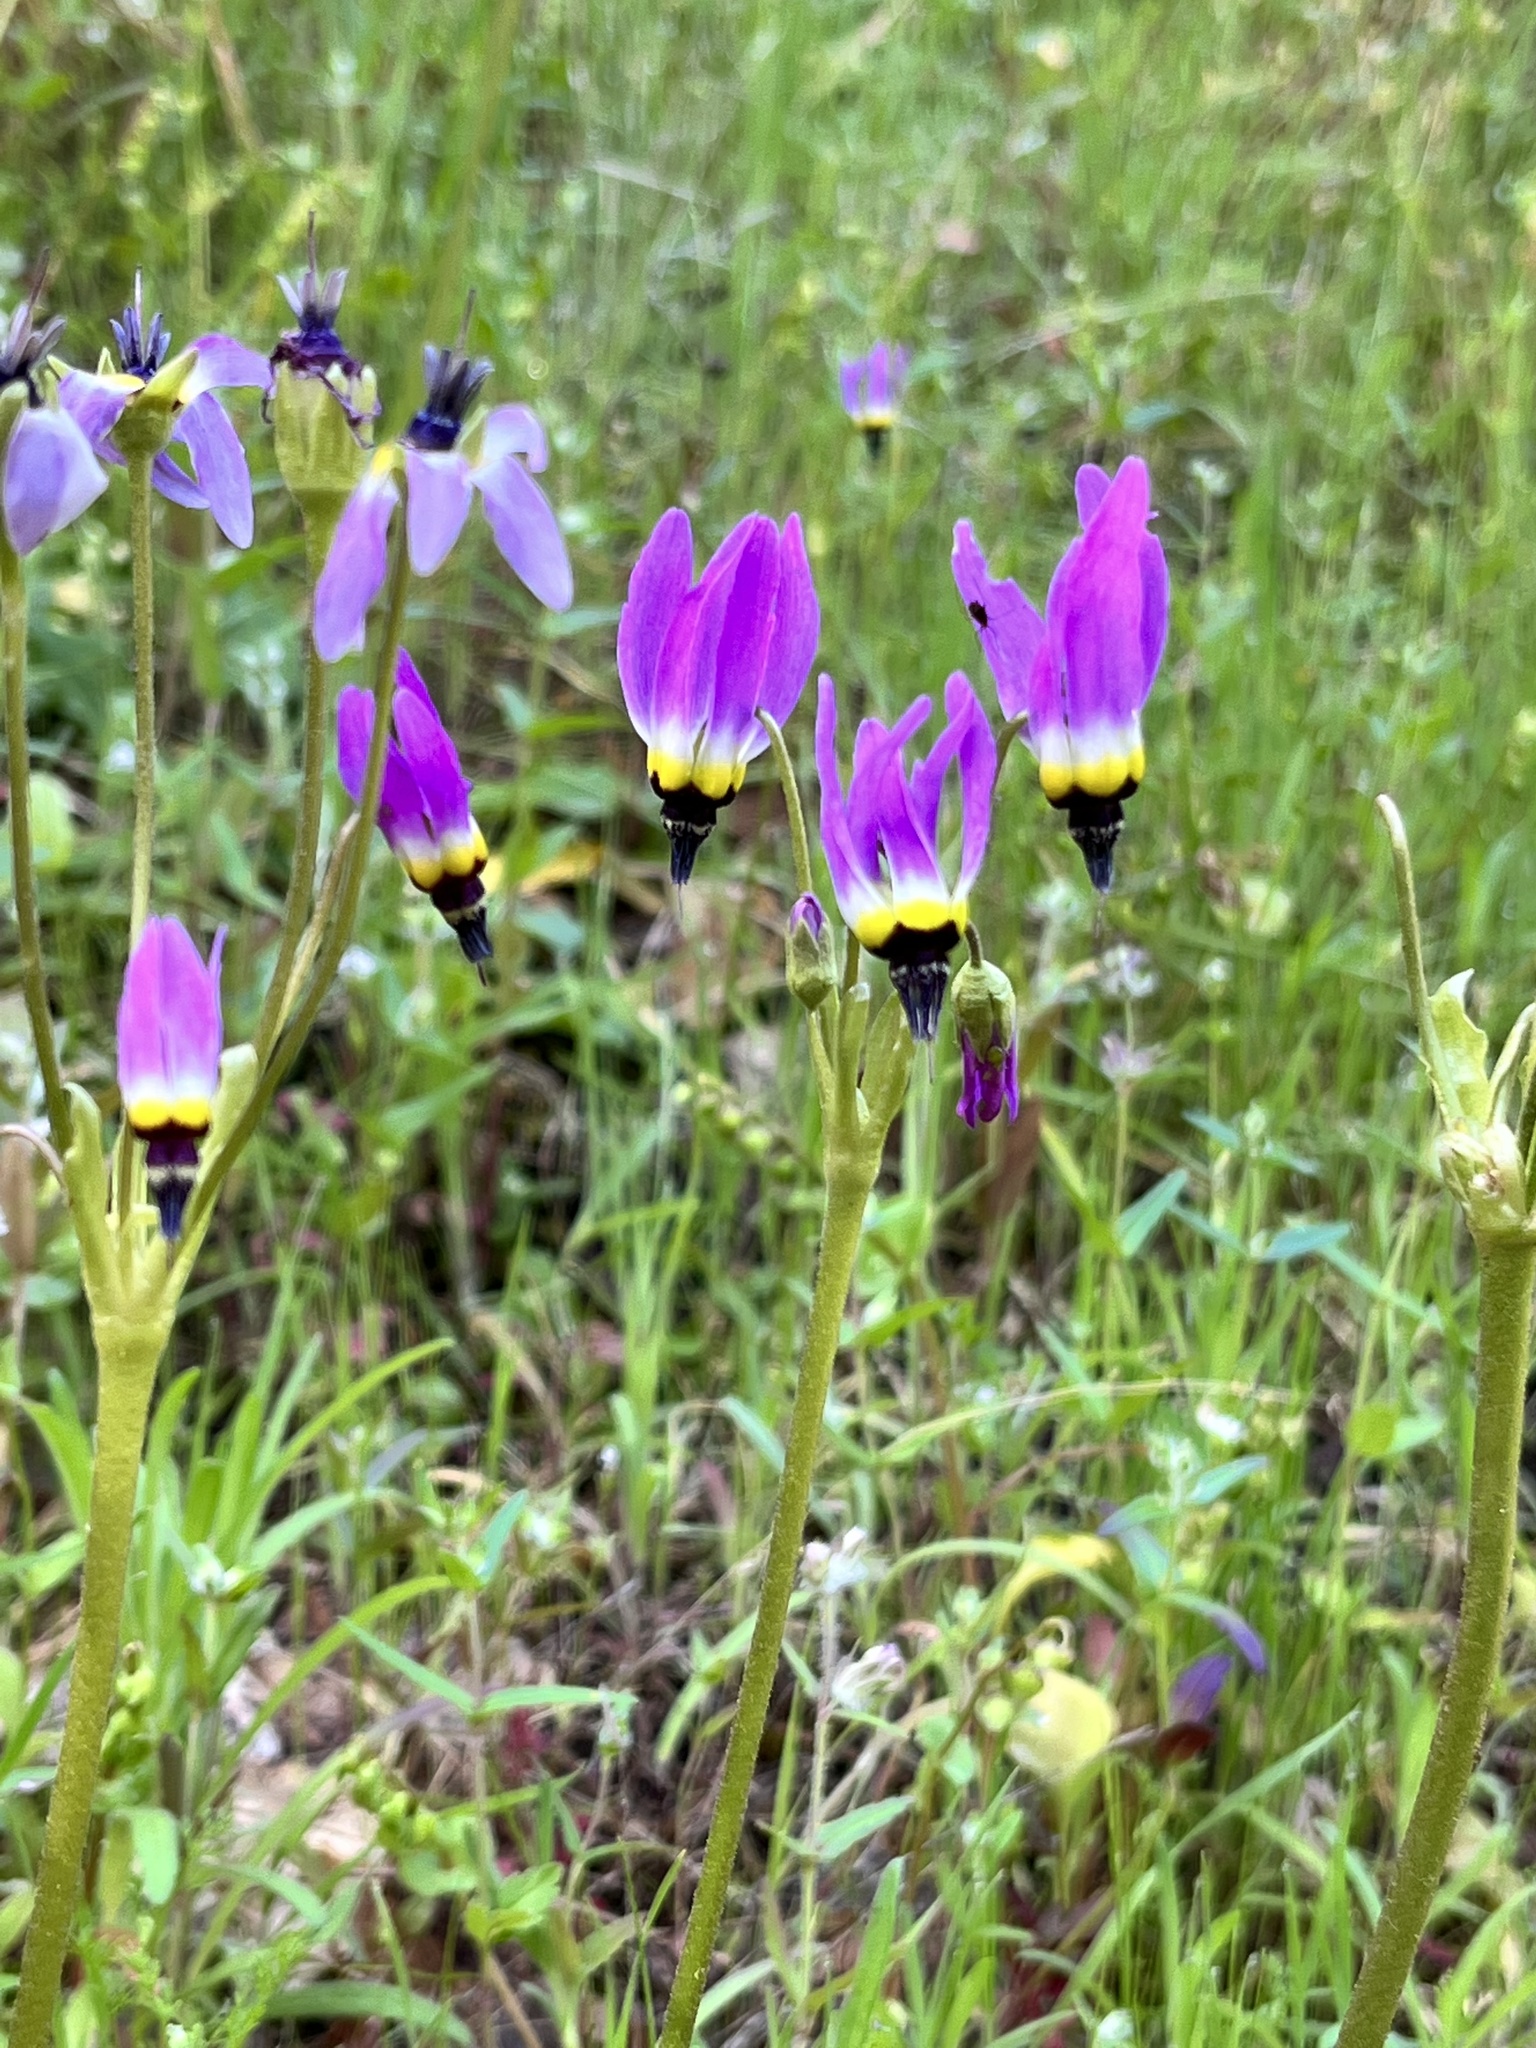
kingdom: Plantae
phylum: Tracheophyta
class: Magnoliopsida
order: Ericales
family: Primulaceae
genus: Dodecatheon
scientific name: Dodecatheon clevelandii
